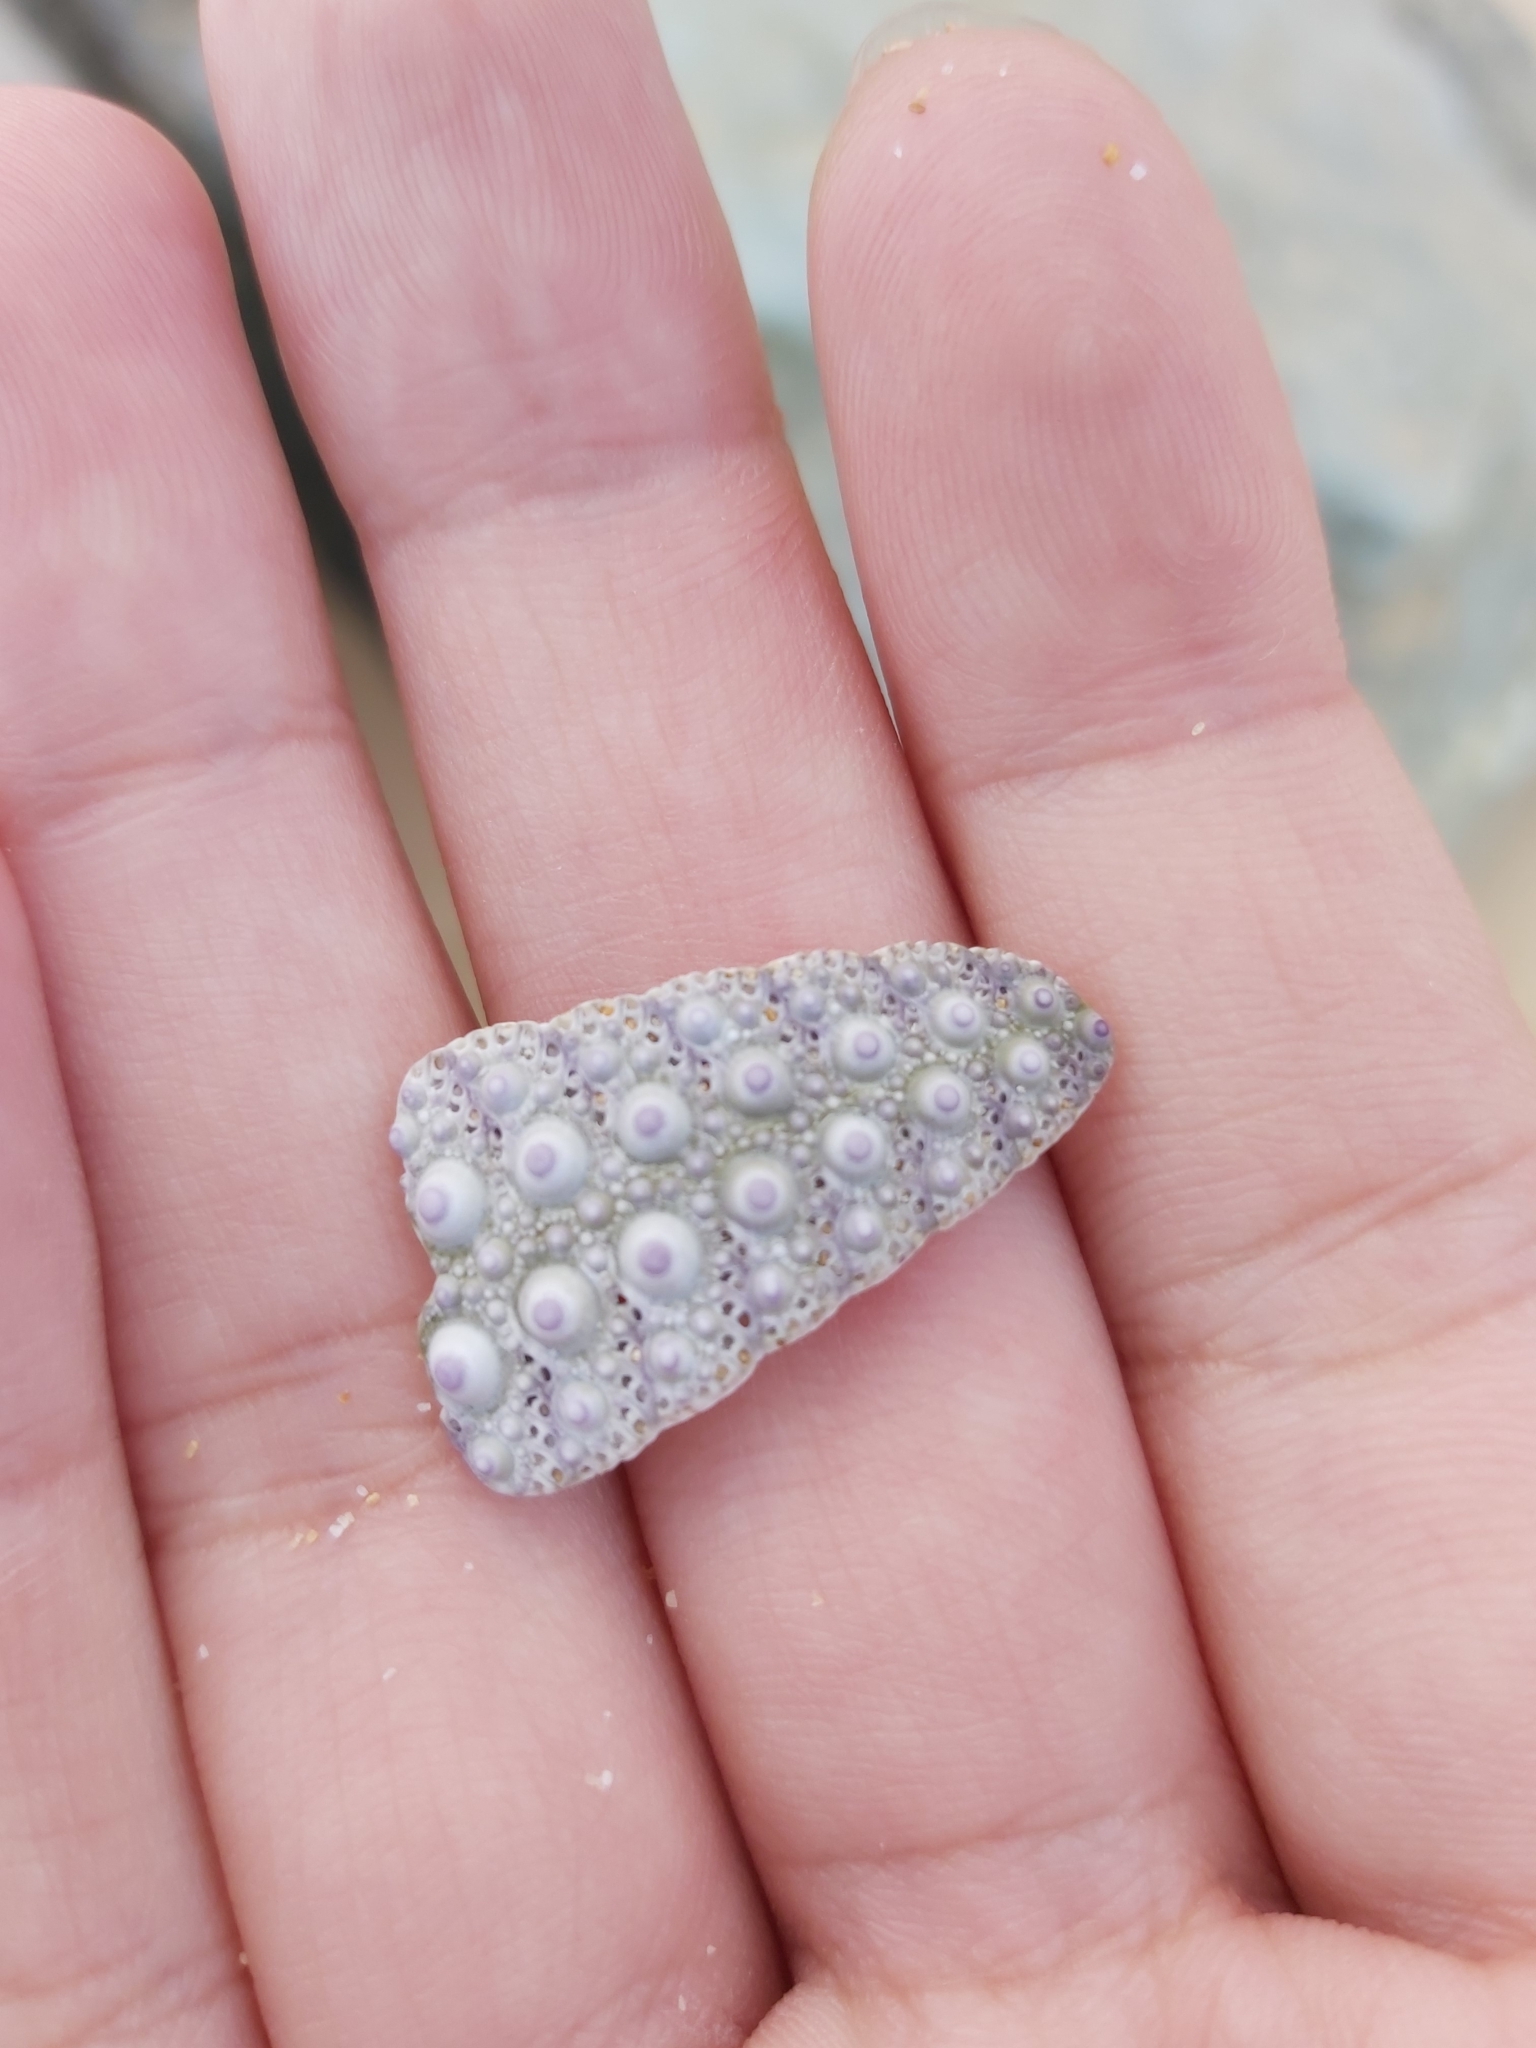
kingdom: Animalia
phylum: Echinodermata
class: Echinoidea
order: Camarodonta
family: Echinometridae
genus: Heliocidaris
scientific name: Heliocidaris erythrogramma
